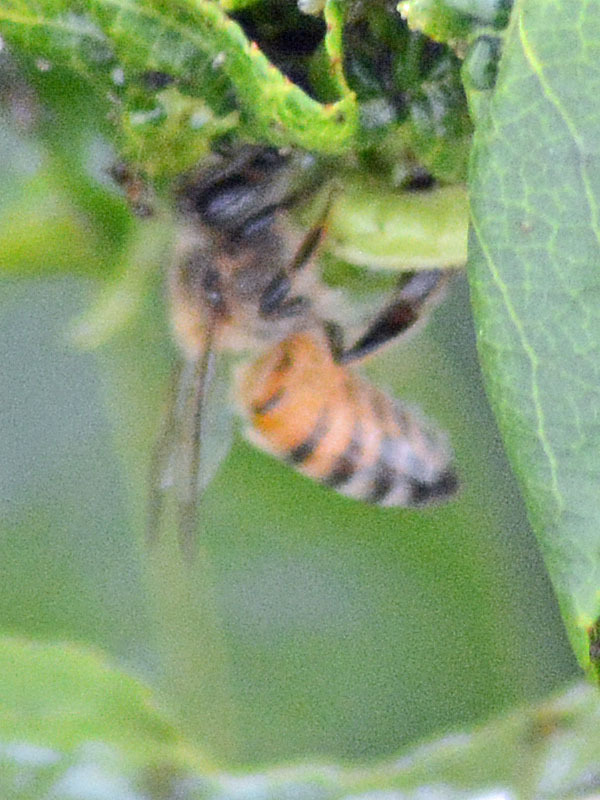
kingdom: Animalia
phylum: Arthropoda
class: Insecta
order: Hymenoptera
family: Apidae
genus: Apis
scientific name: Apis mellifera
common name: Honey bee
